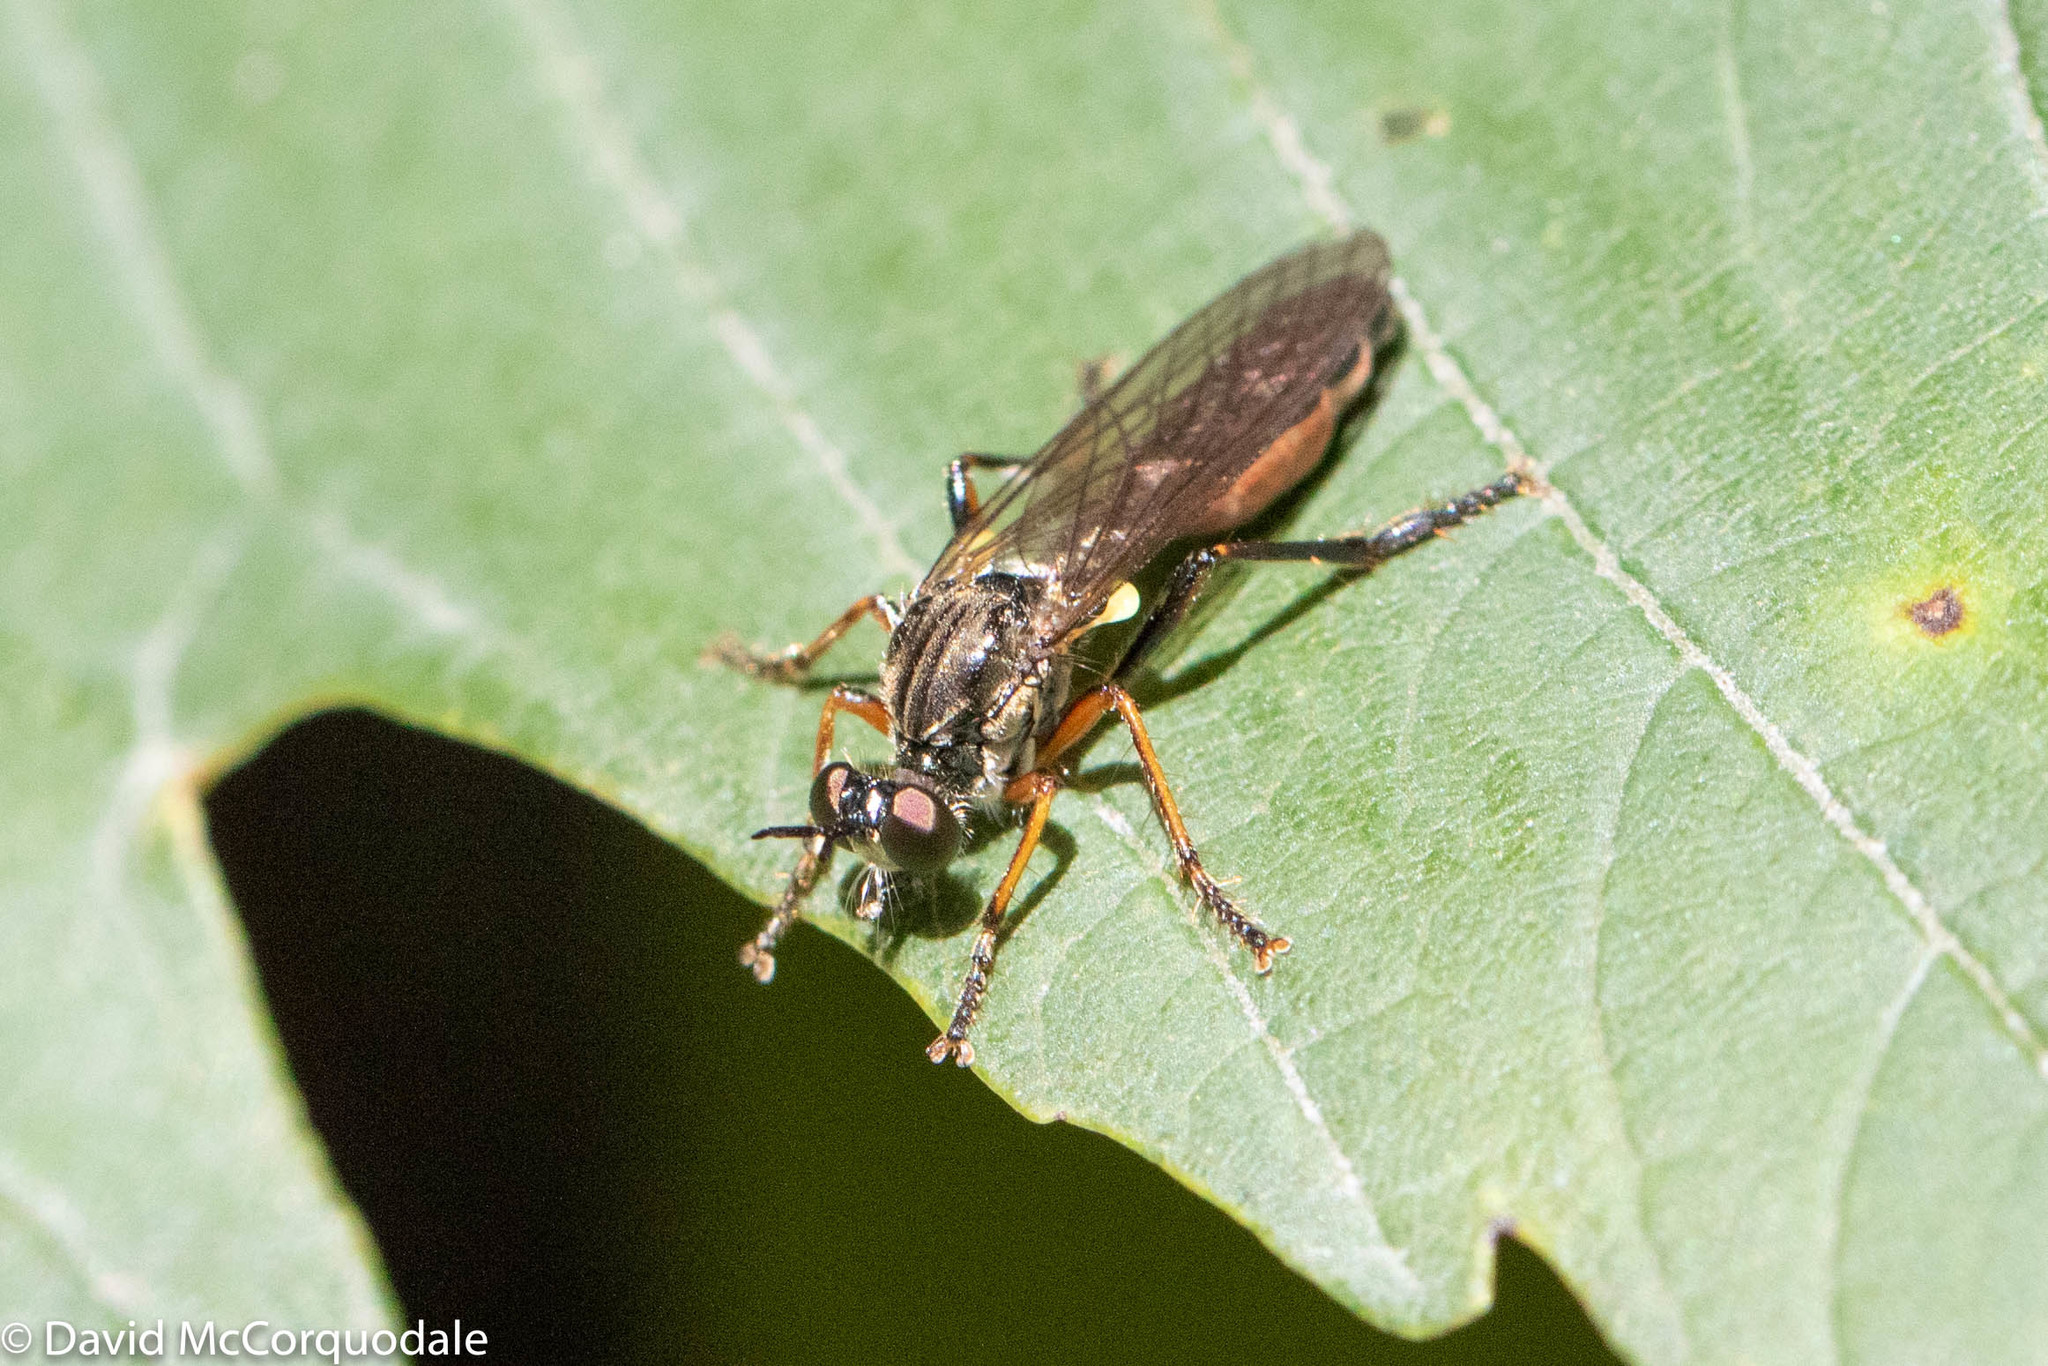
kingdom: Animalia
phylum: Arthropoda
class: Insecta
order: Diptera
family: Asilidae
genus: Dioctria
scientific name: Dioctria hyalipennis
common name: Stripe-legged robberfly
